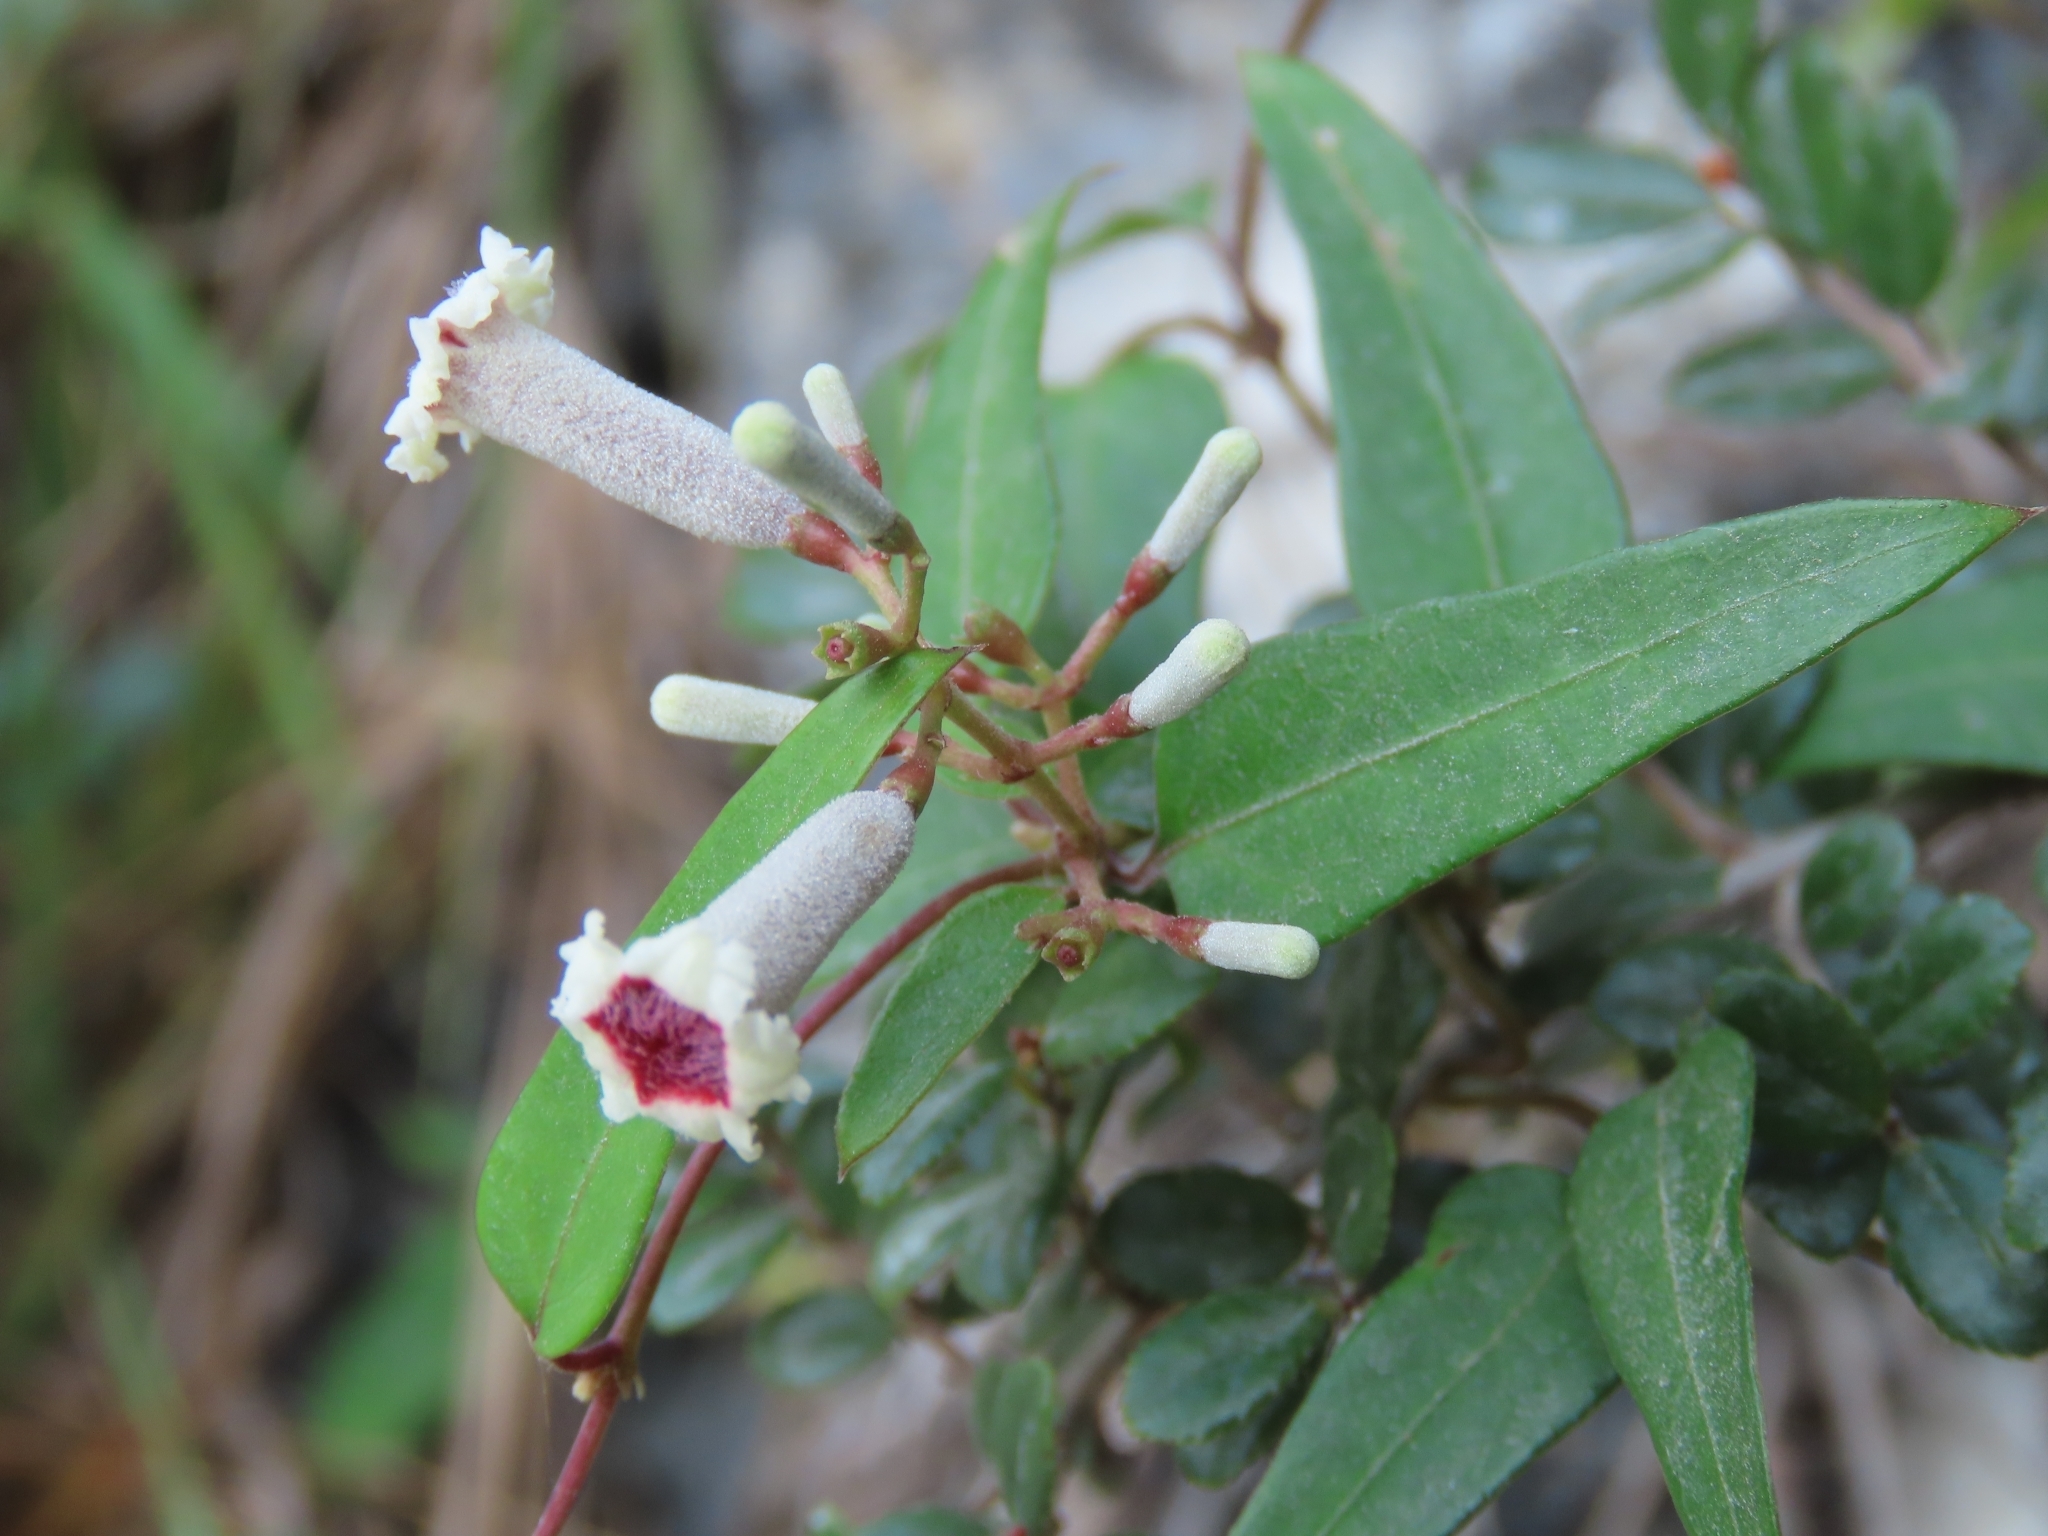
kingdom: Plantae
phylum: Tracheophyta
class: Magnoliopsida
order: Gentianales
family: Rubiaceae
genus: Paederia
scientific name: Paederia foetida
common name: Stinkvine
